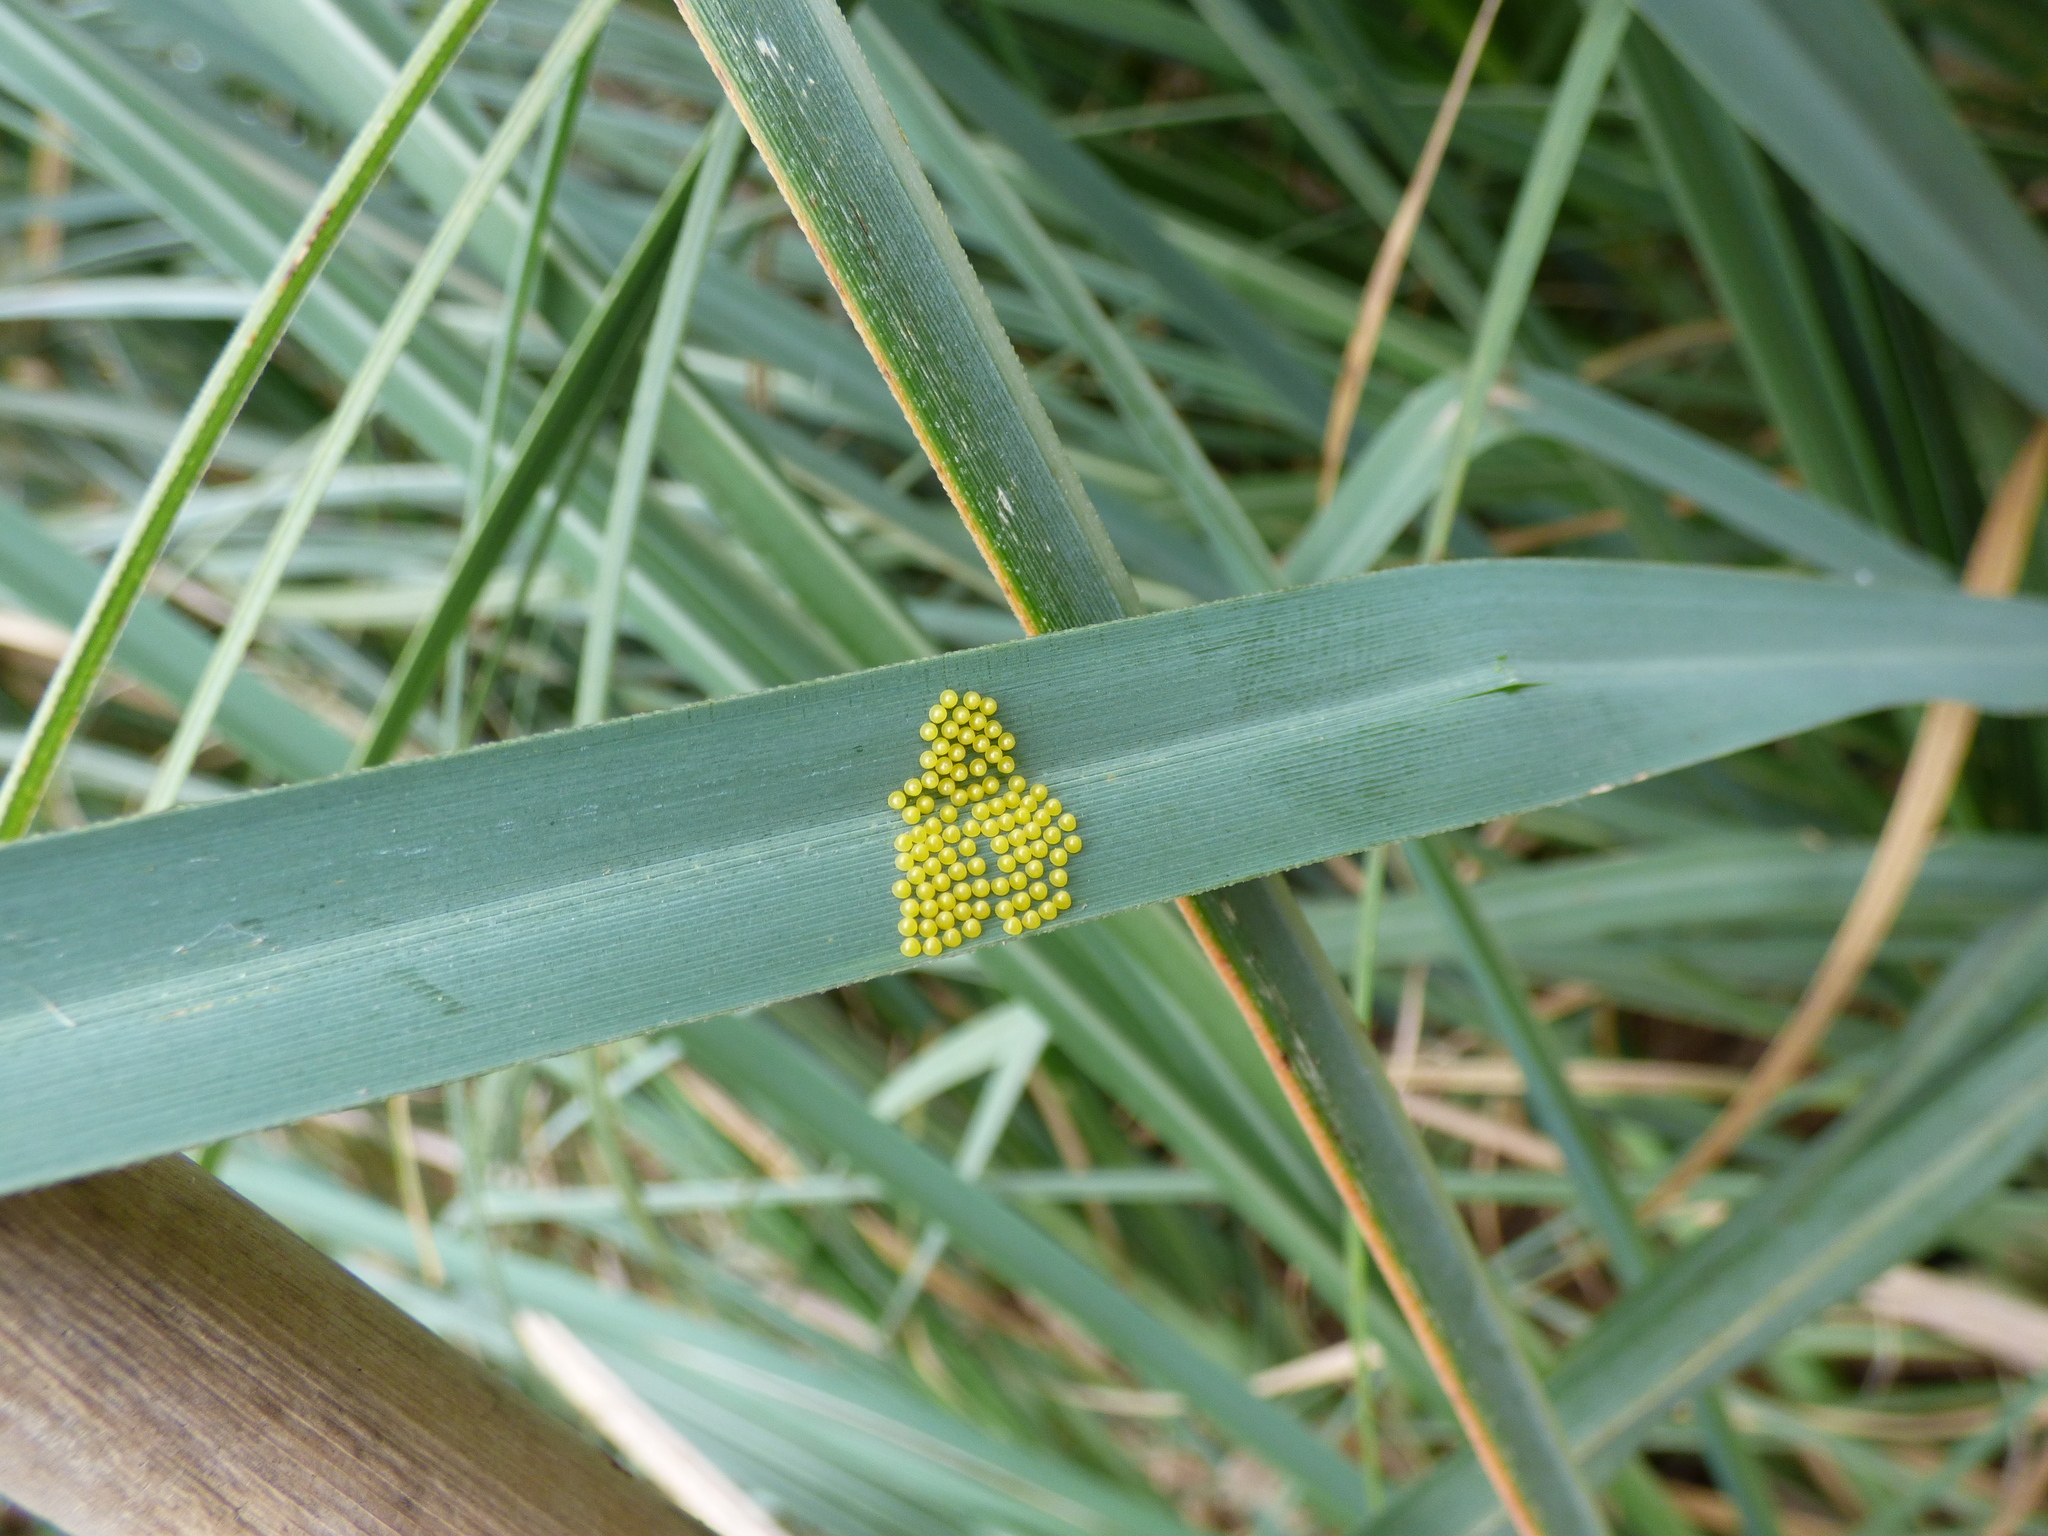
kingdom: Animalia
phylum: Arthropoda
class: Insecta
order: Lepidoptera
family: Erebidae
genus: Eurata
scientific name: Eurata hermione
